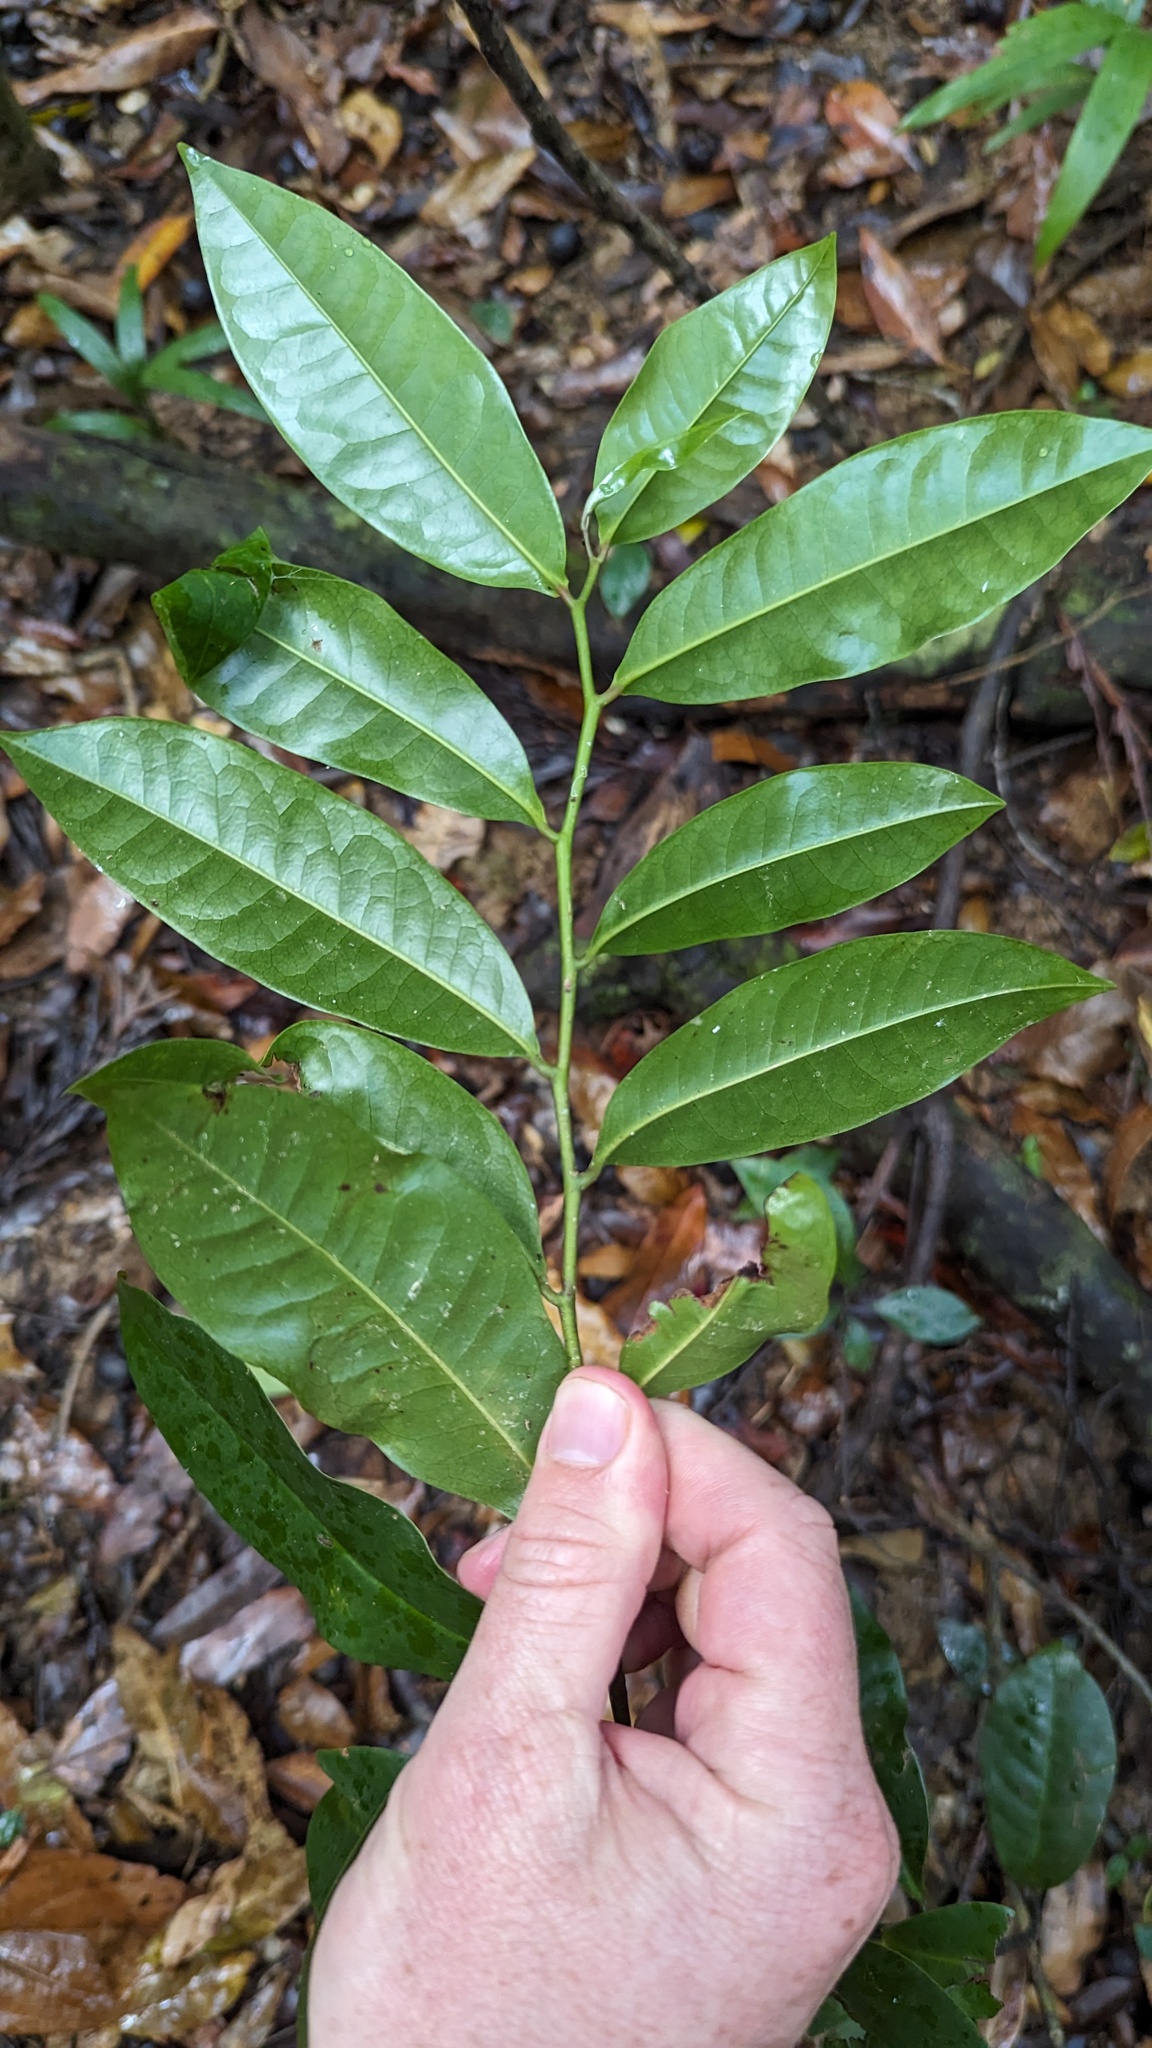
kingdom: Plantae
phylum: Tracheophyta
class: Magnoliopsida
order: Magnoliales
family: Eupomatiaceae
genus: Eupomatia
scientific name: Eupomatia laurina
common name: Bolwarra
